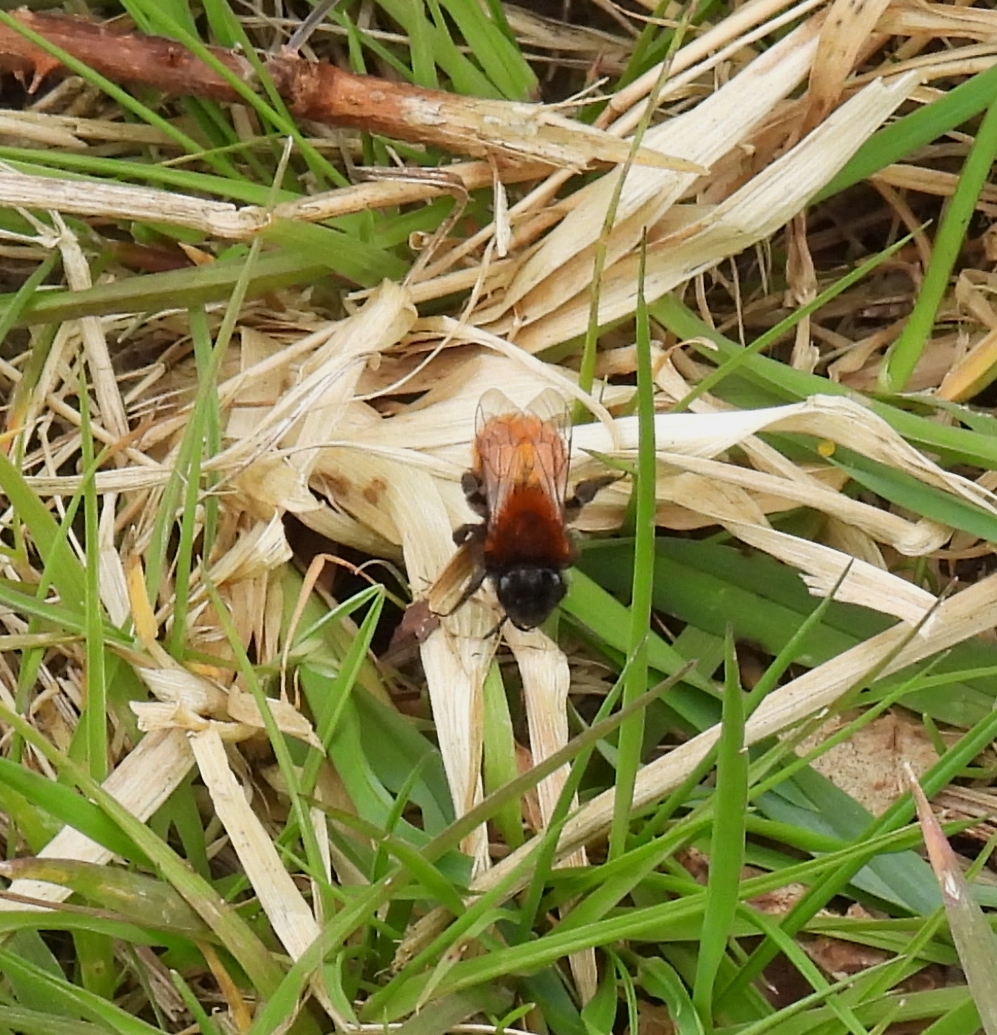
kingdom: Animalia
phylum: Arthropoda
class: Insecta
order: Hymenoptera
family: Andrenidae
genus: Andrena
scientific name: Andrena fulva
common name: Tawny mining bee
